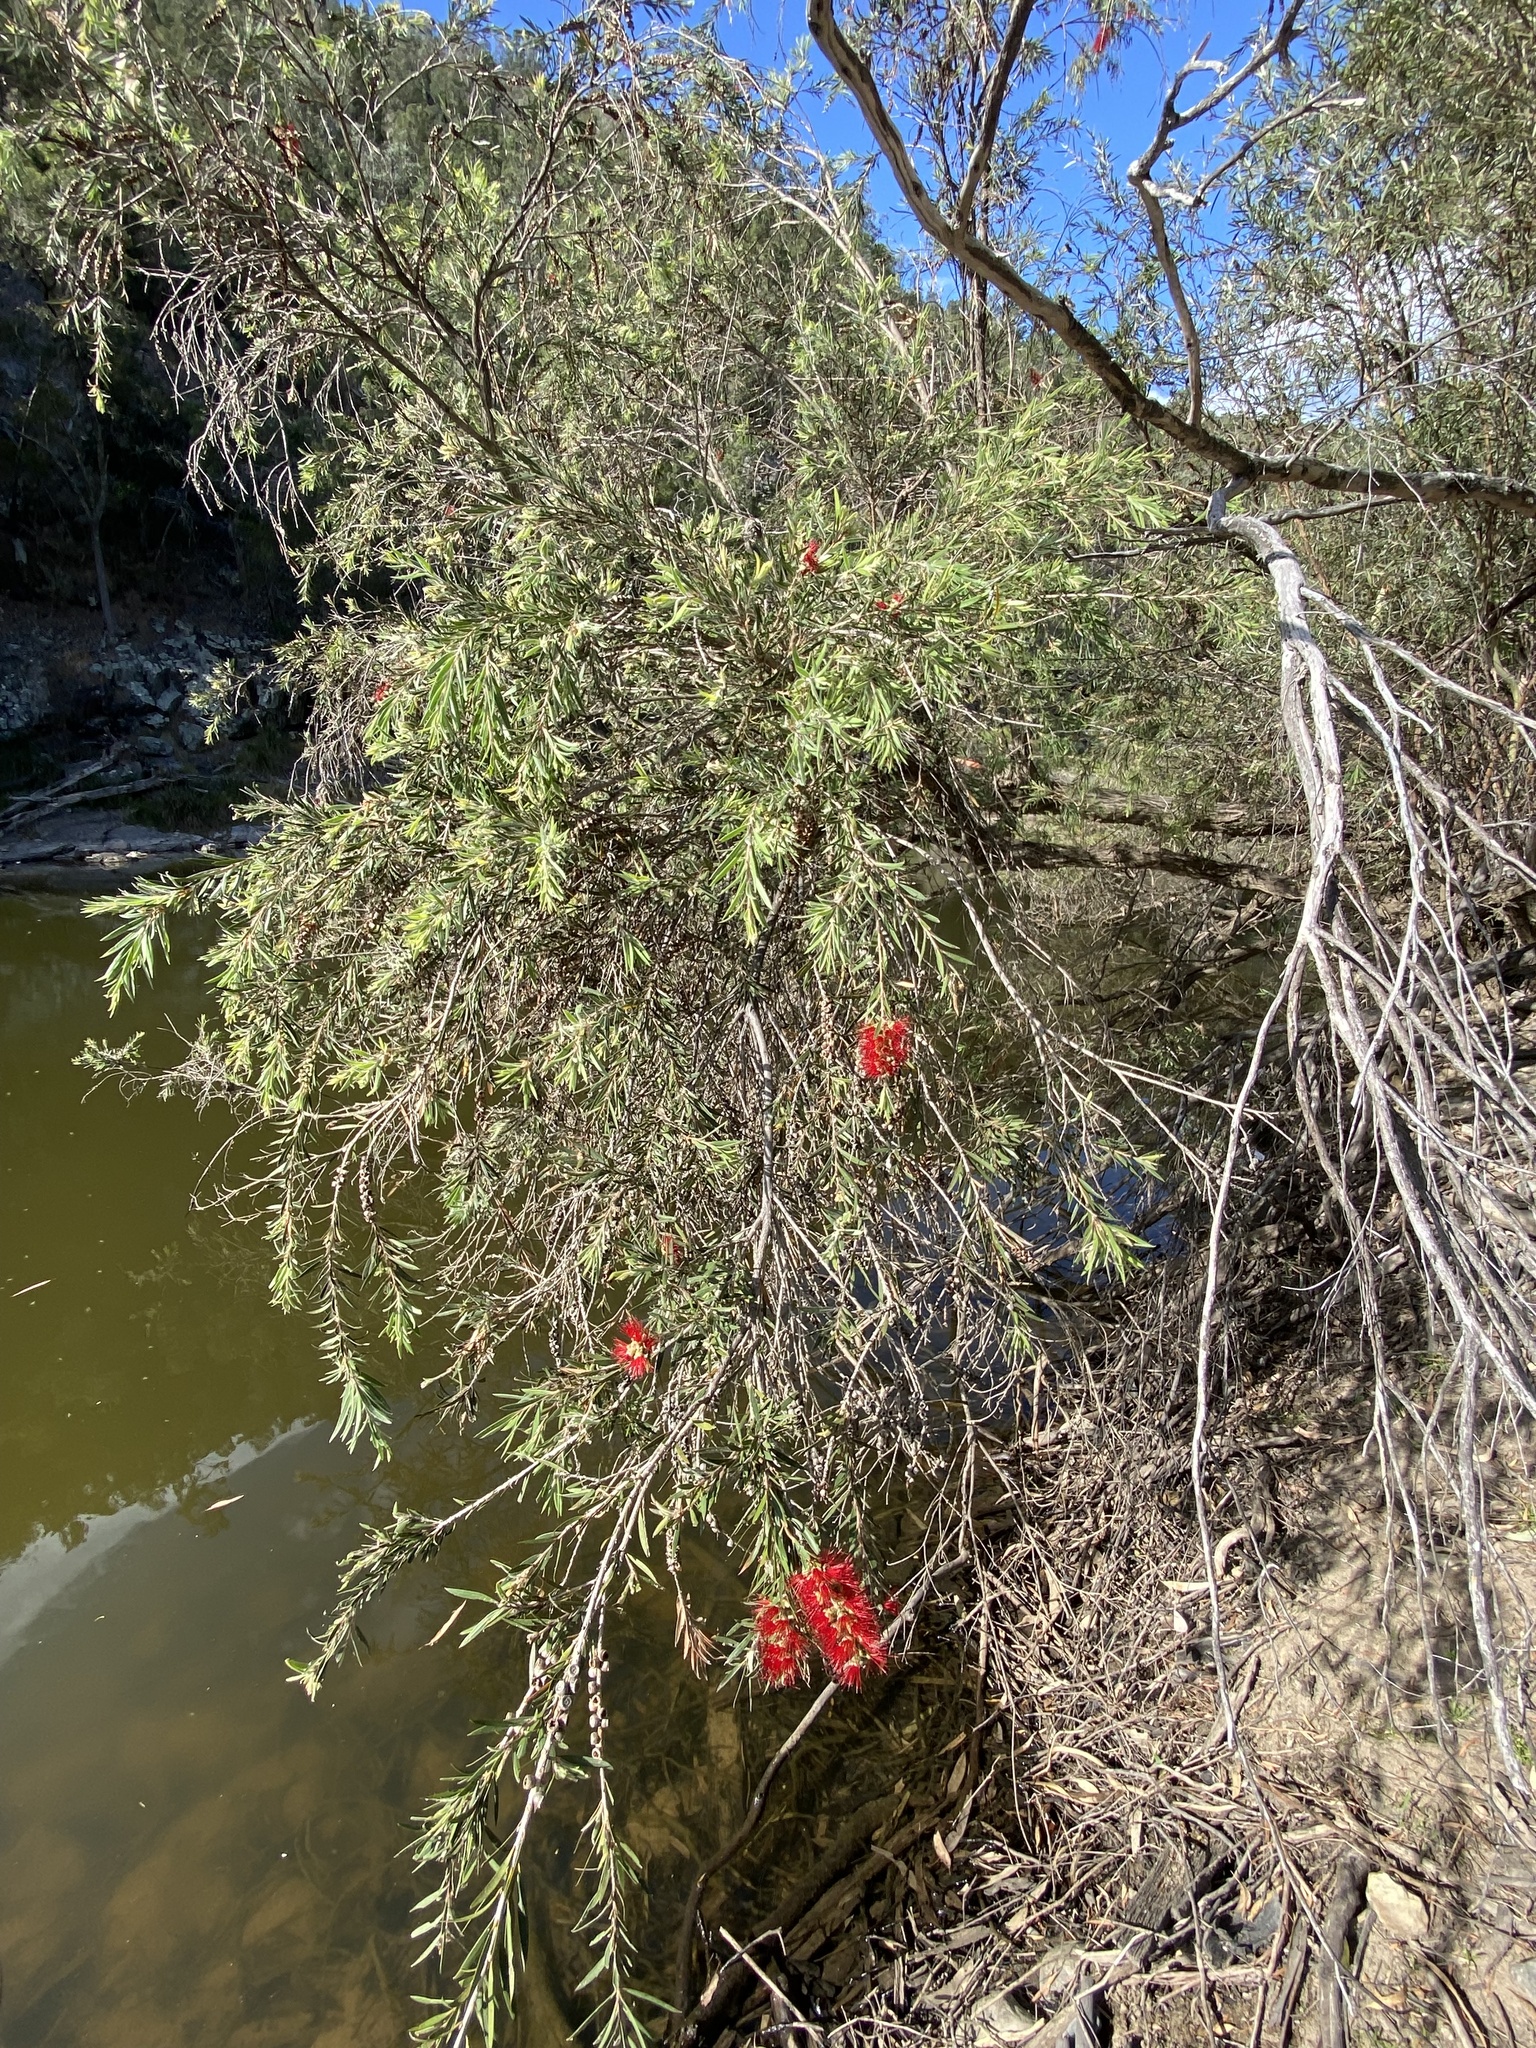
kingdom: Plantae
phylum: Tracheophyta
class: Magnoliopsida
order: Myrtales
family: Myrtaceae
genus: Callistemon
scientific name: Callistemon viminalis
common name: Drooping bottlebrush
